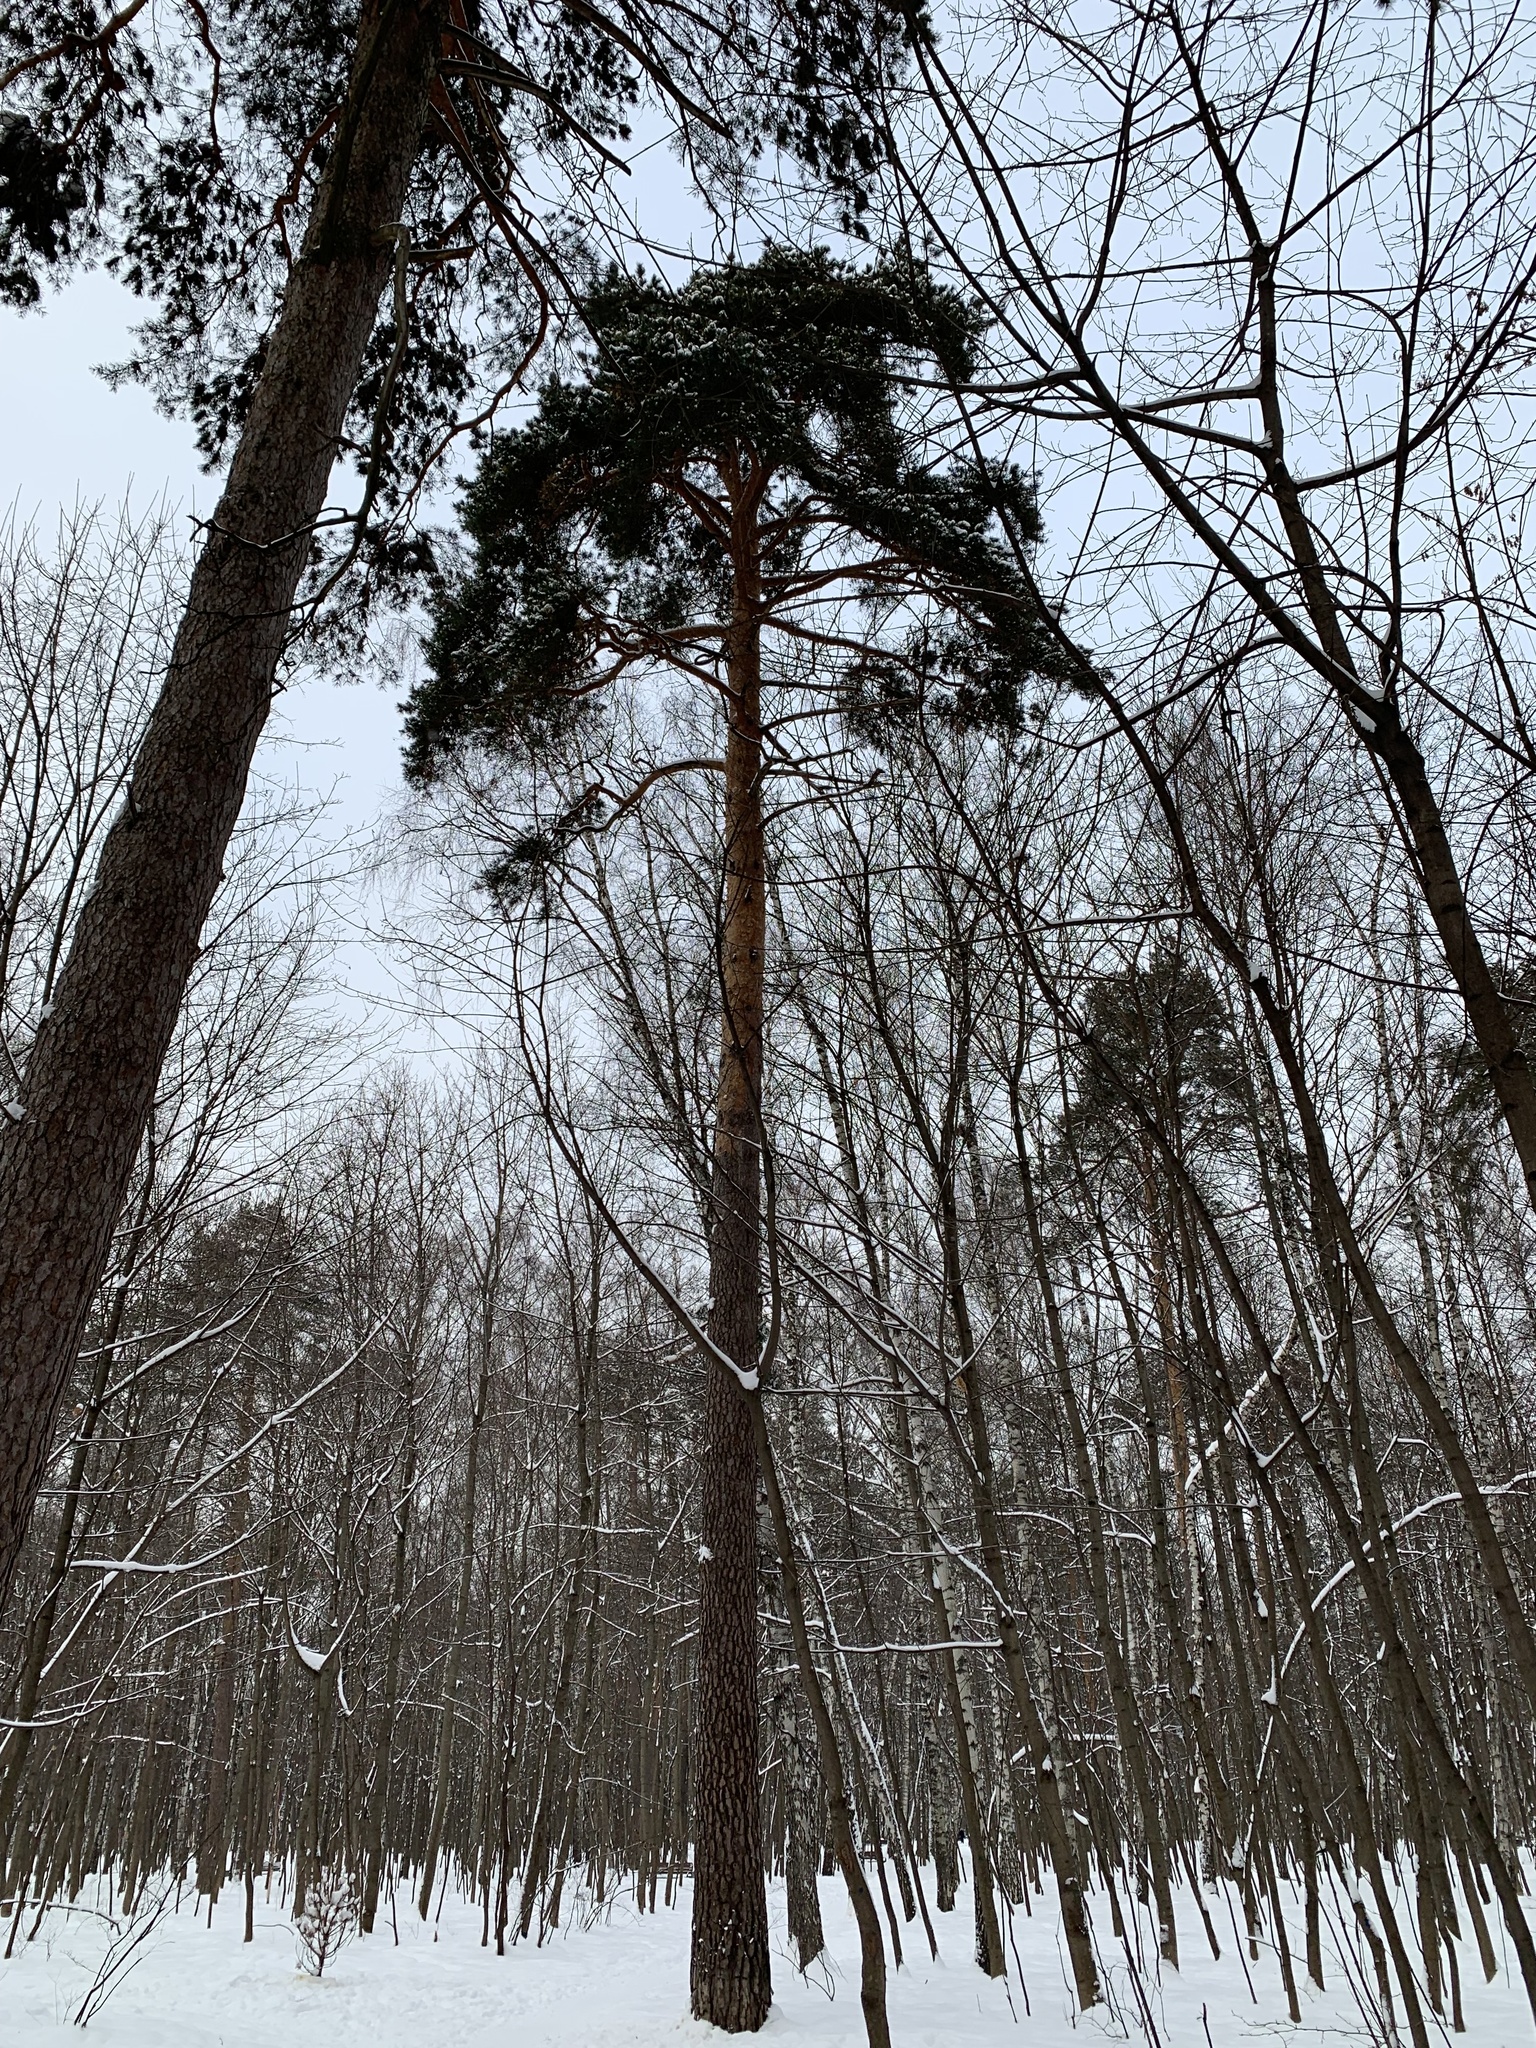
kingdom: Plantae
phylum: Tracheophyta
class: Pinopsida
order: Pinales
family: Pinaceae
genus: Pinus
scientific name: Pinus sylvestris
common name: Scots pine
